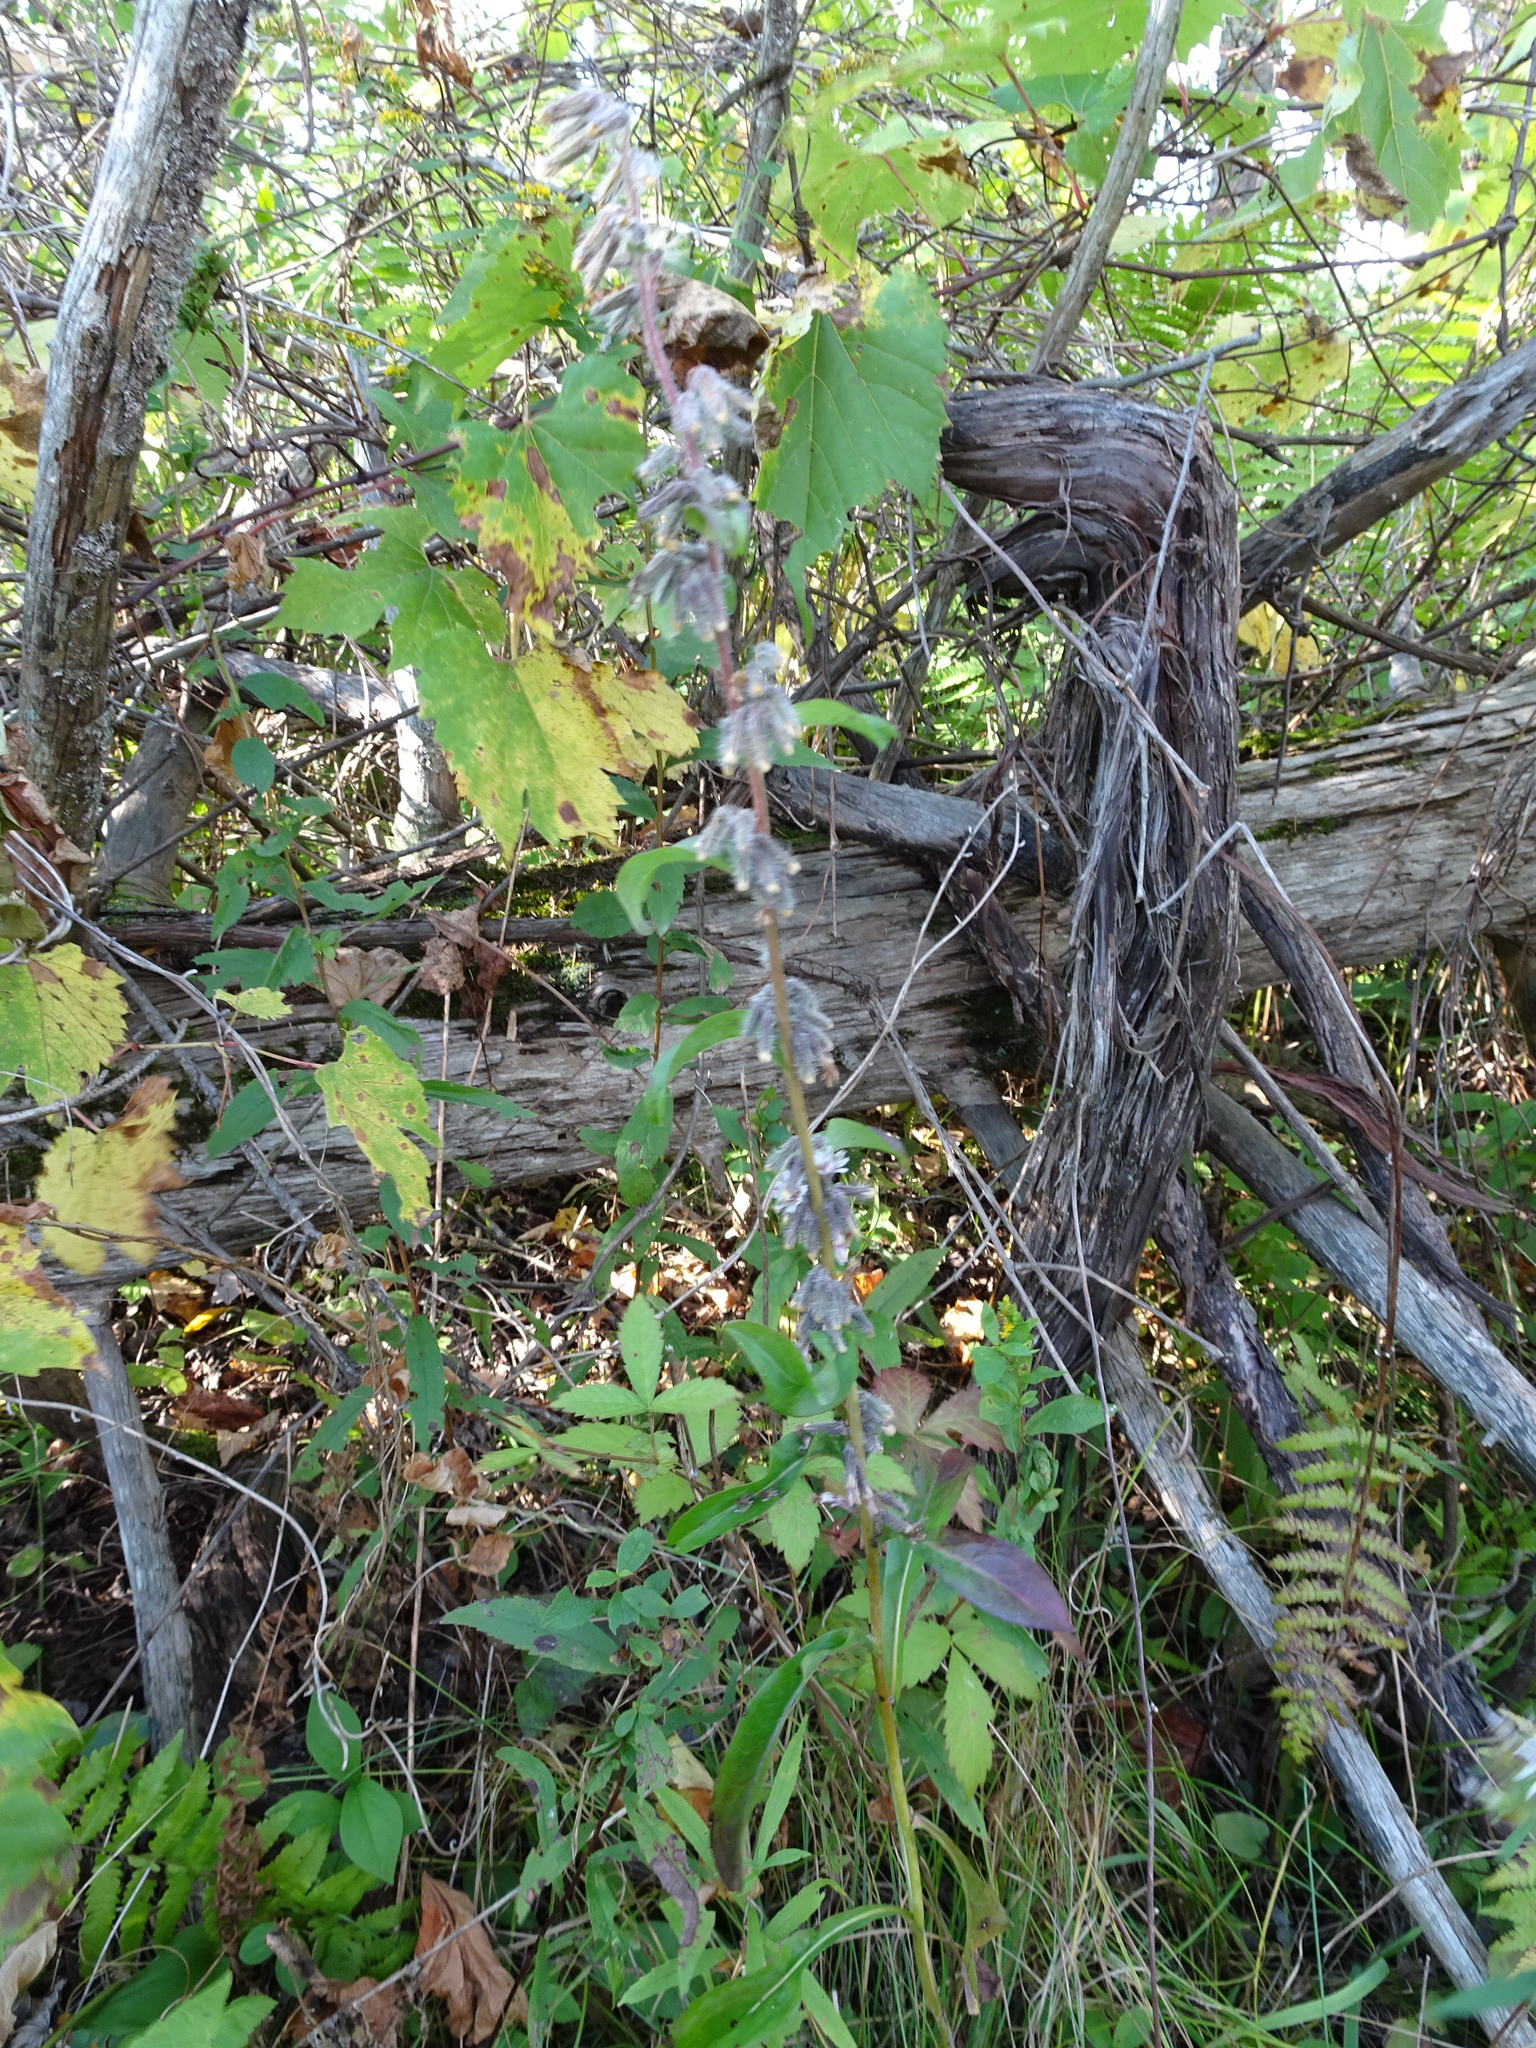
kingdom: Plantae
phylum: Tracheophyta
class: Magnoliopsida
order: Asterales
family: Asteraceae
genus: Nabalus
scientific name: Nabalus racemosus
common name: Glaucous white lettuce
